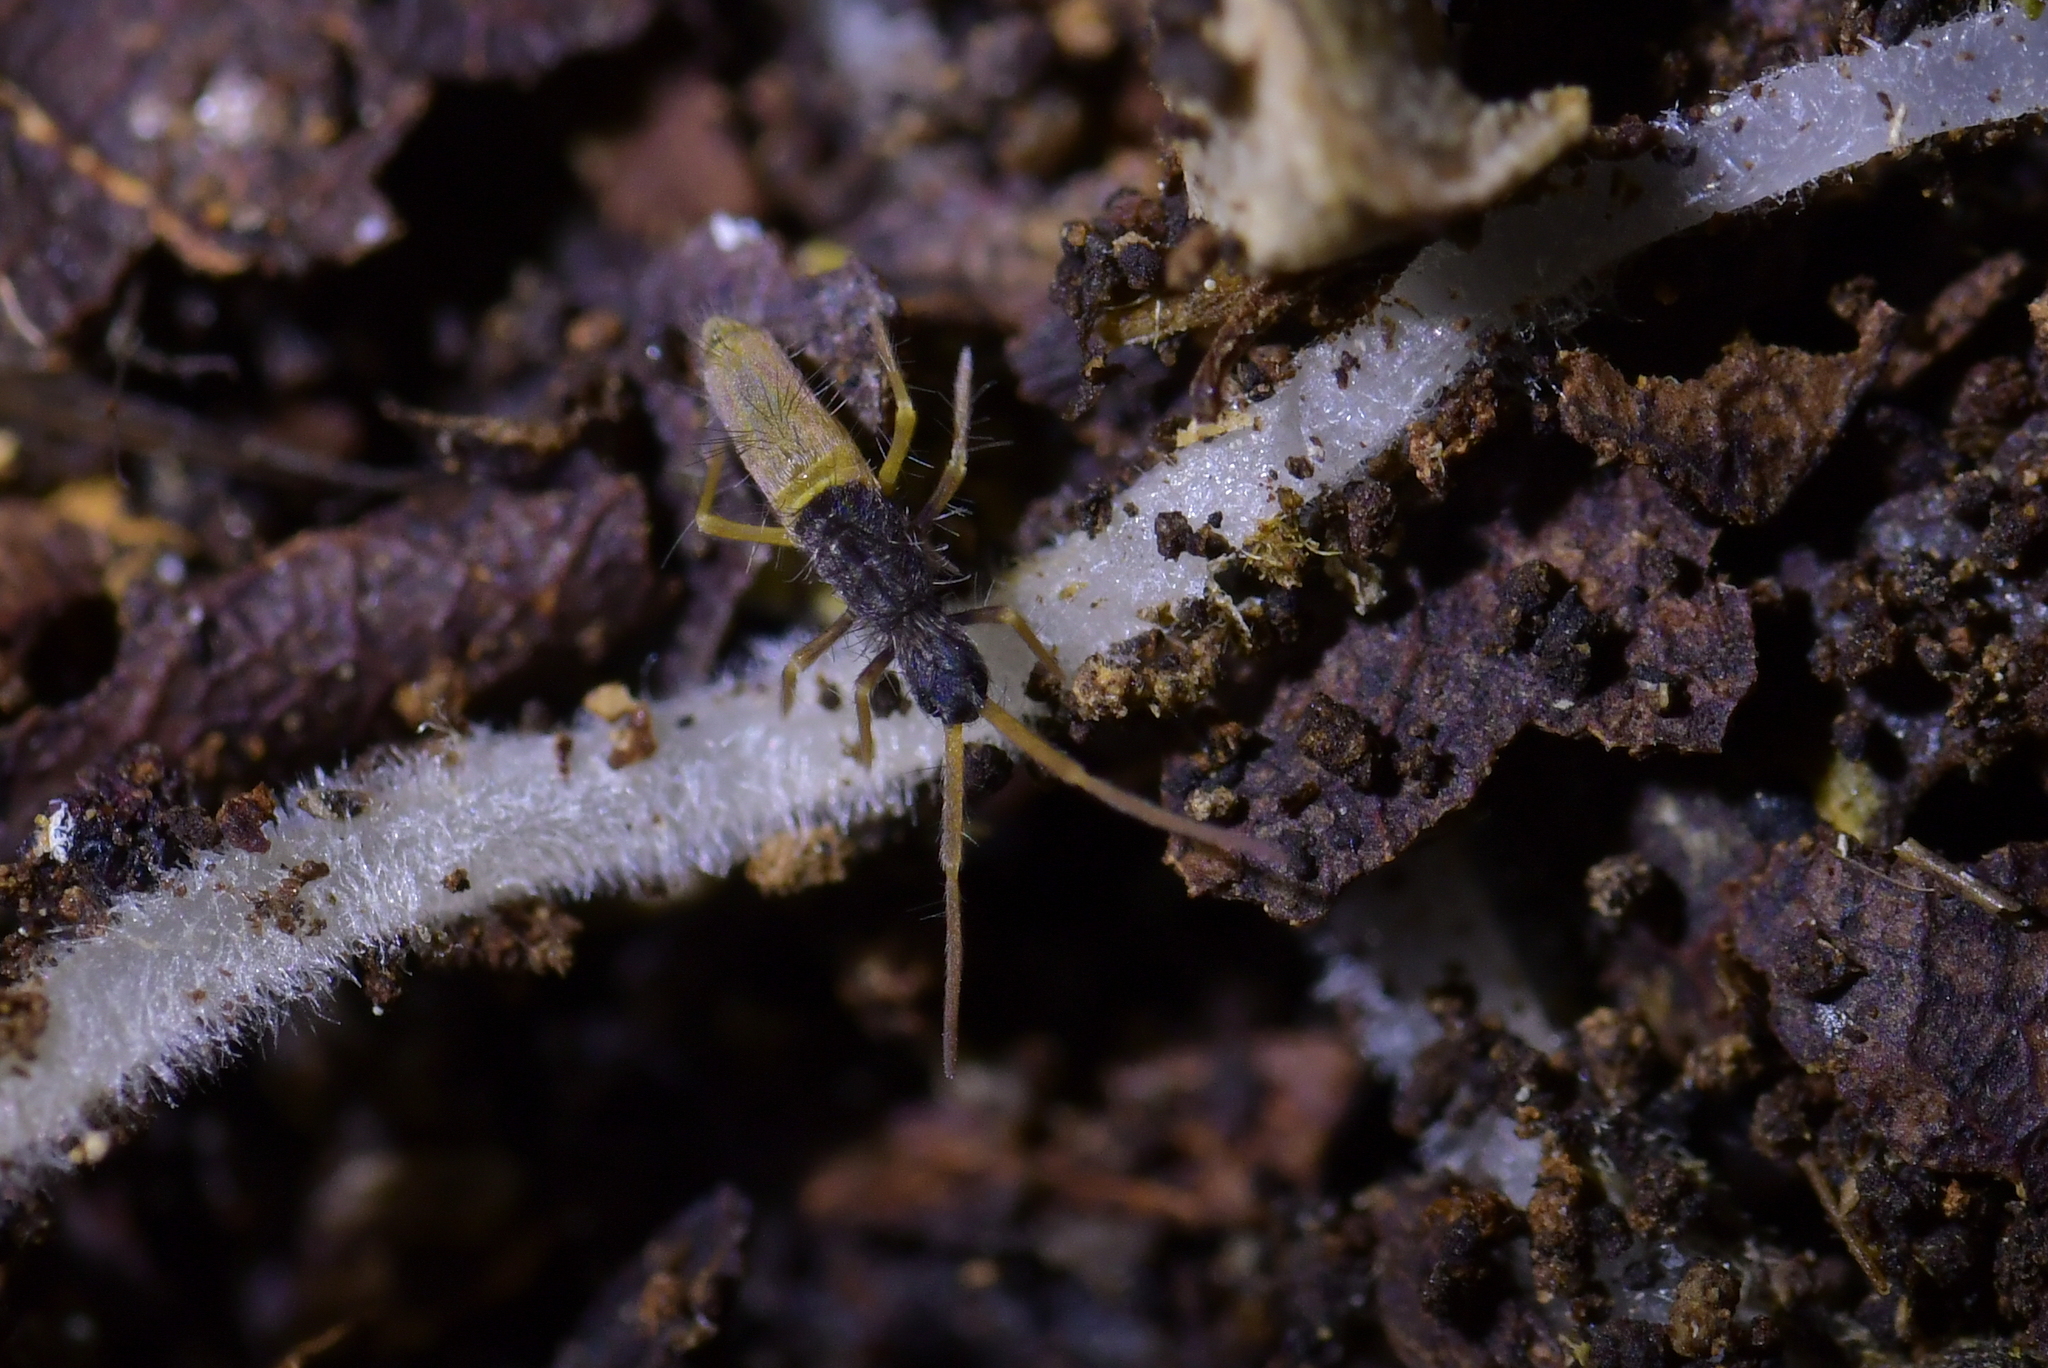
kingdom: Animalia
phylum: Arthropoda
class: Collembola
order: Entomobryomorpha
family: Paronellidae
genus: Paronana
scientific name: Paronana karoriensis
